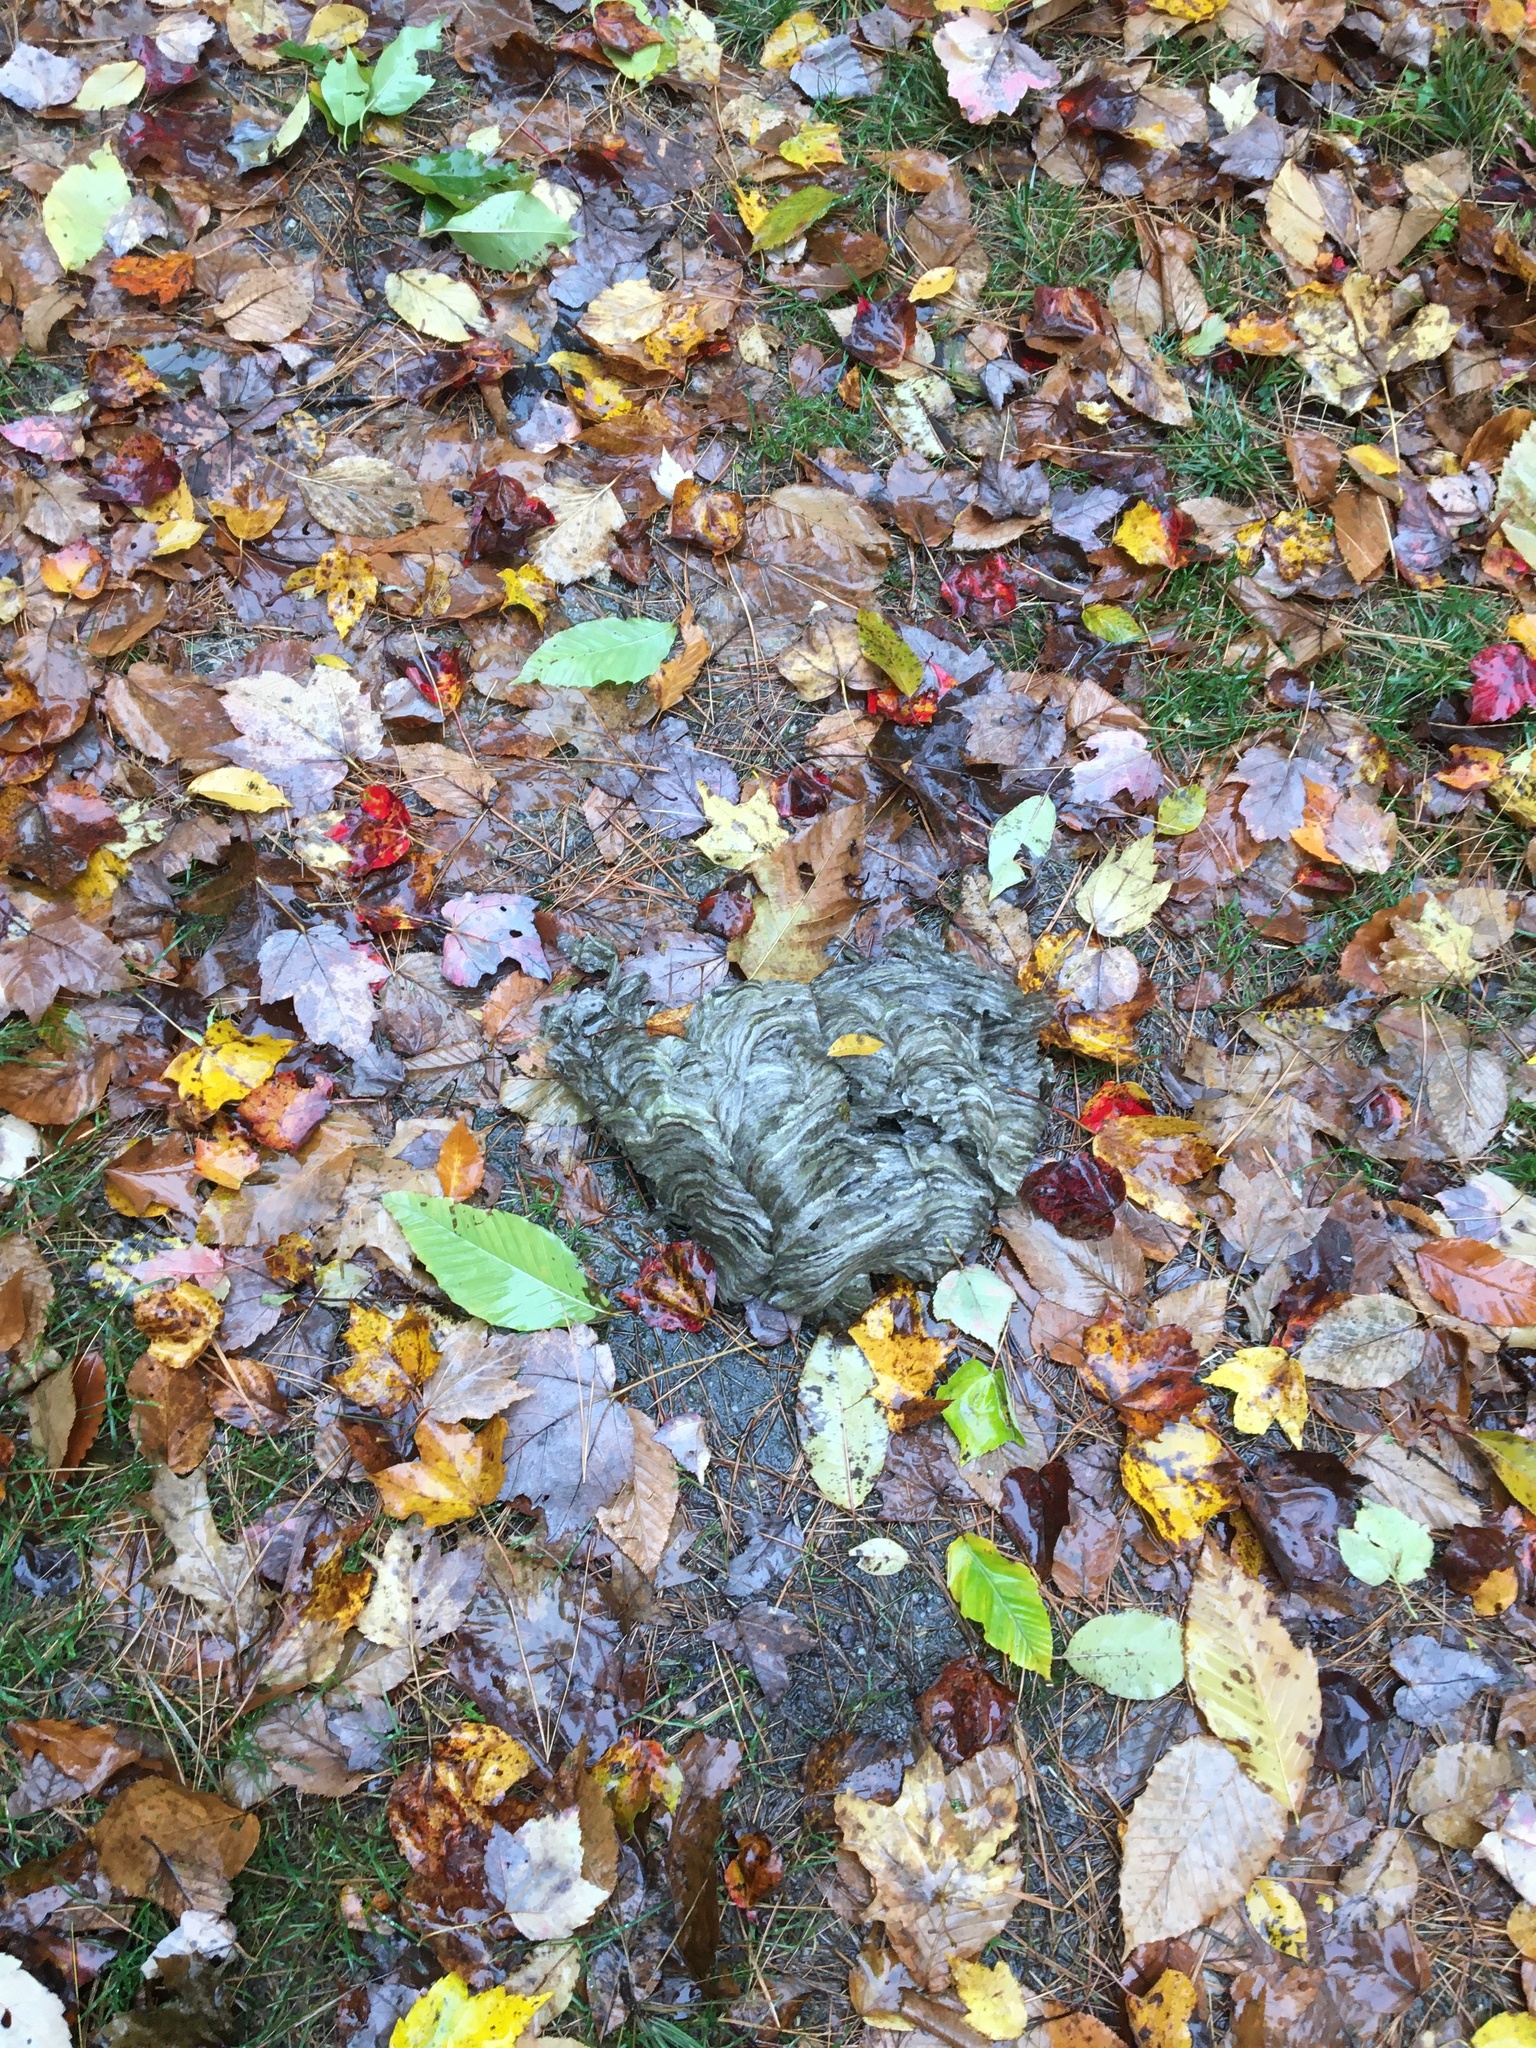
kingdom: Animalia
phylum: Arthropoda
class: Insecta
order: Hymenoptera
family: Vespidae
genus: Dolichovespula
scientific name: Dolichovespula maculata
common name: Bald-faced hornet
